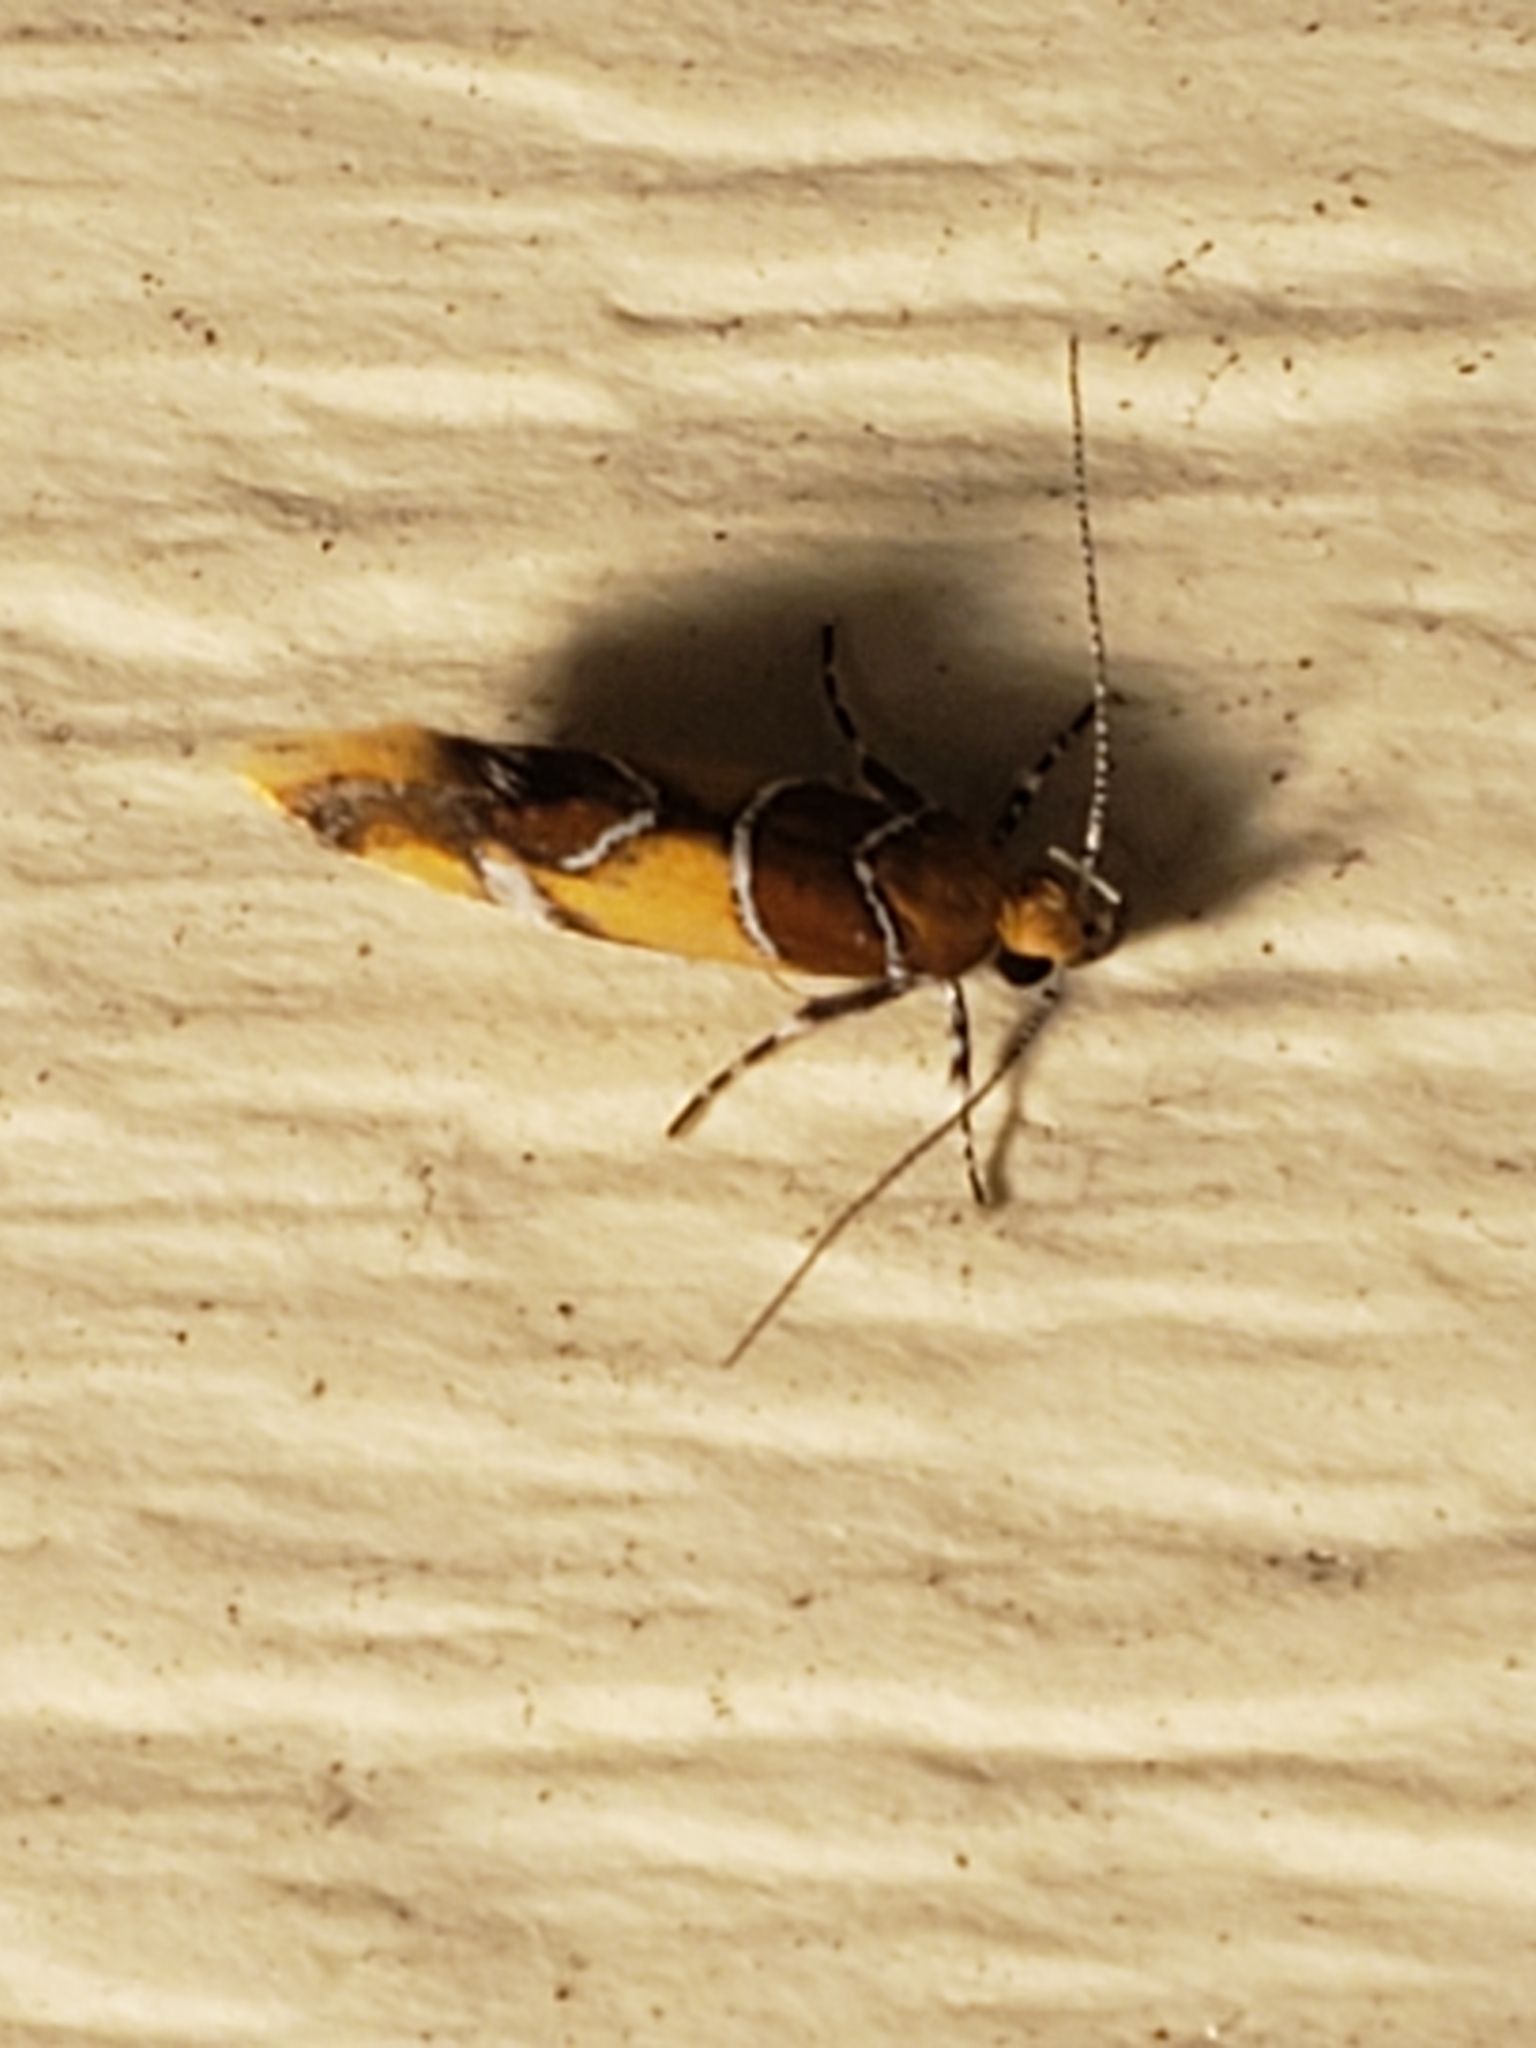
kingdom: Animalia
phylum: Arthropoda
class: Insecta
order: Lepidoptera
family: Oecophoridae
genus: Callima
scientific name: Callima argenticinctella
